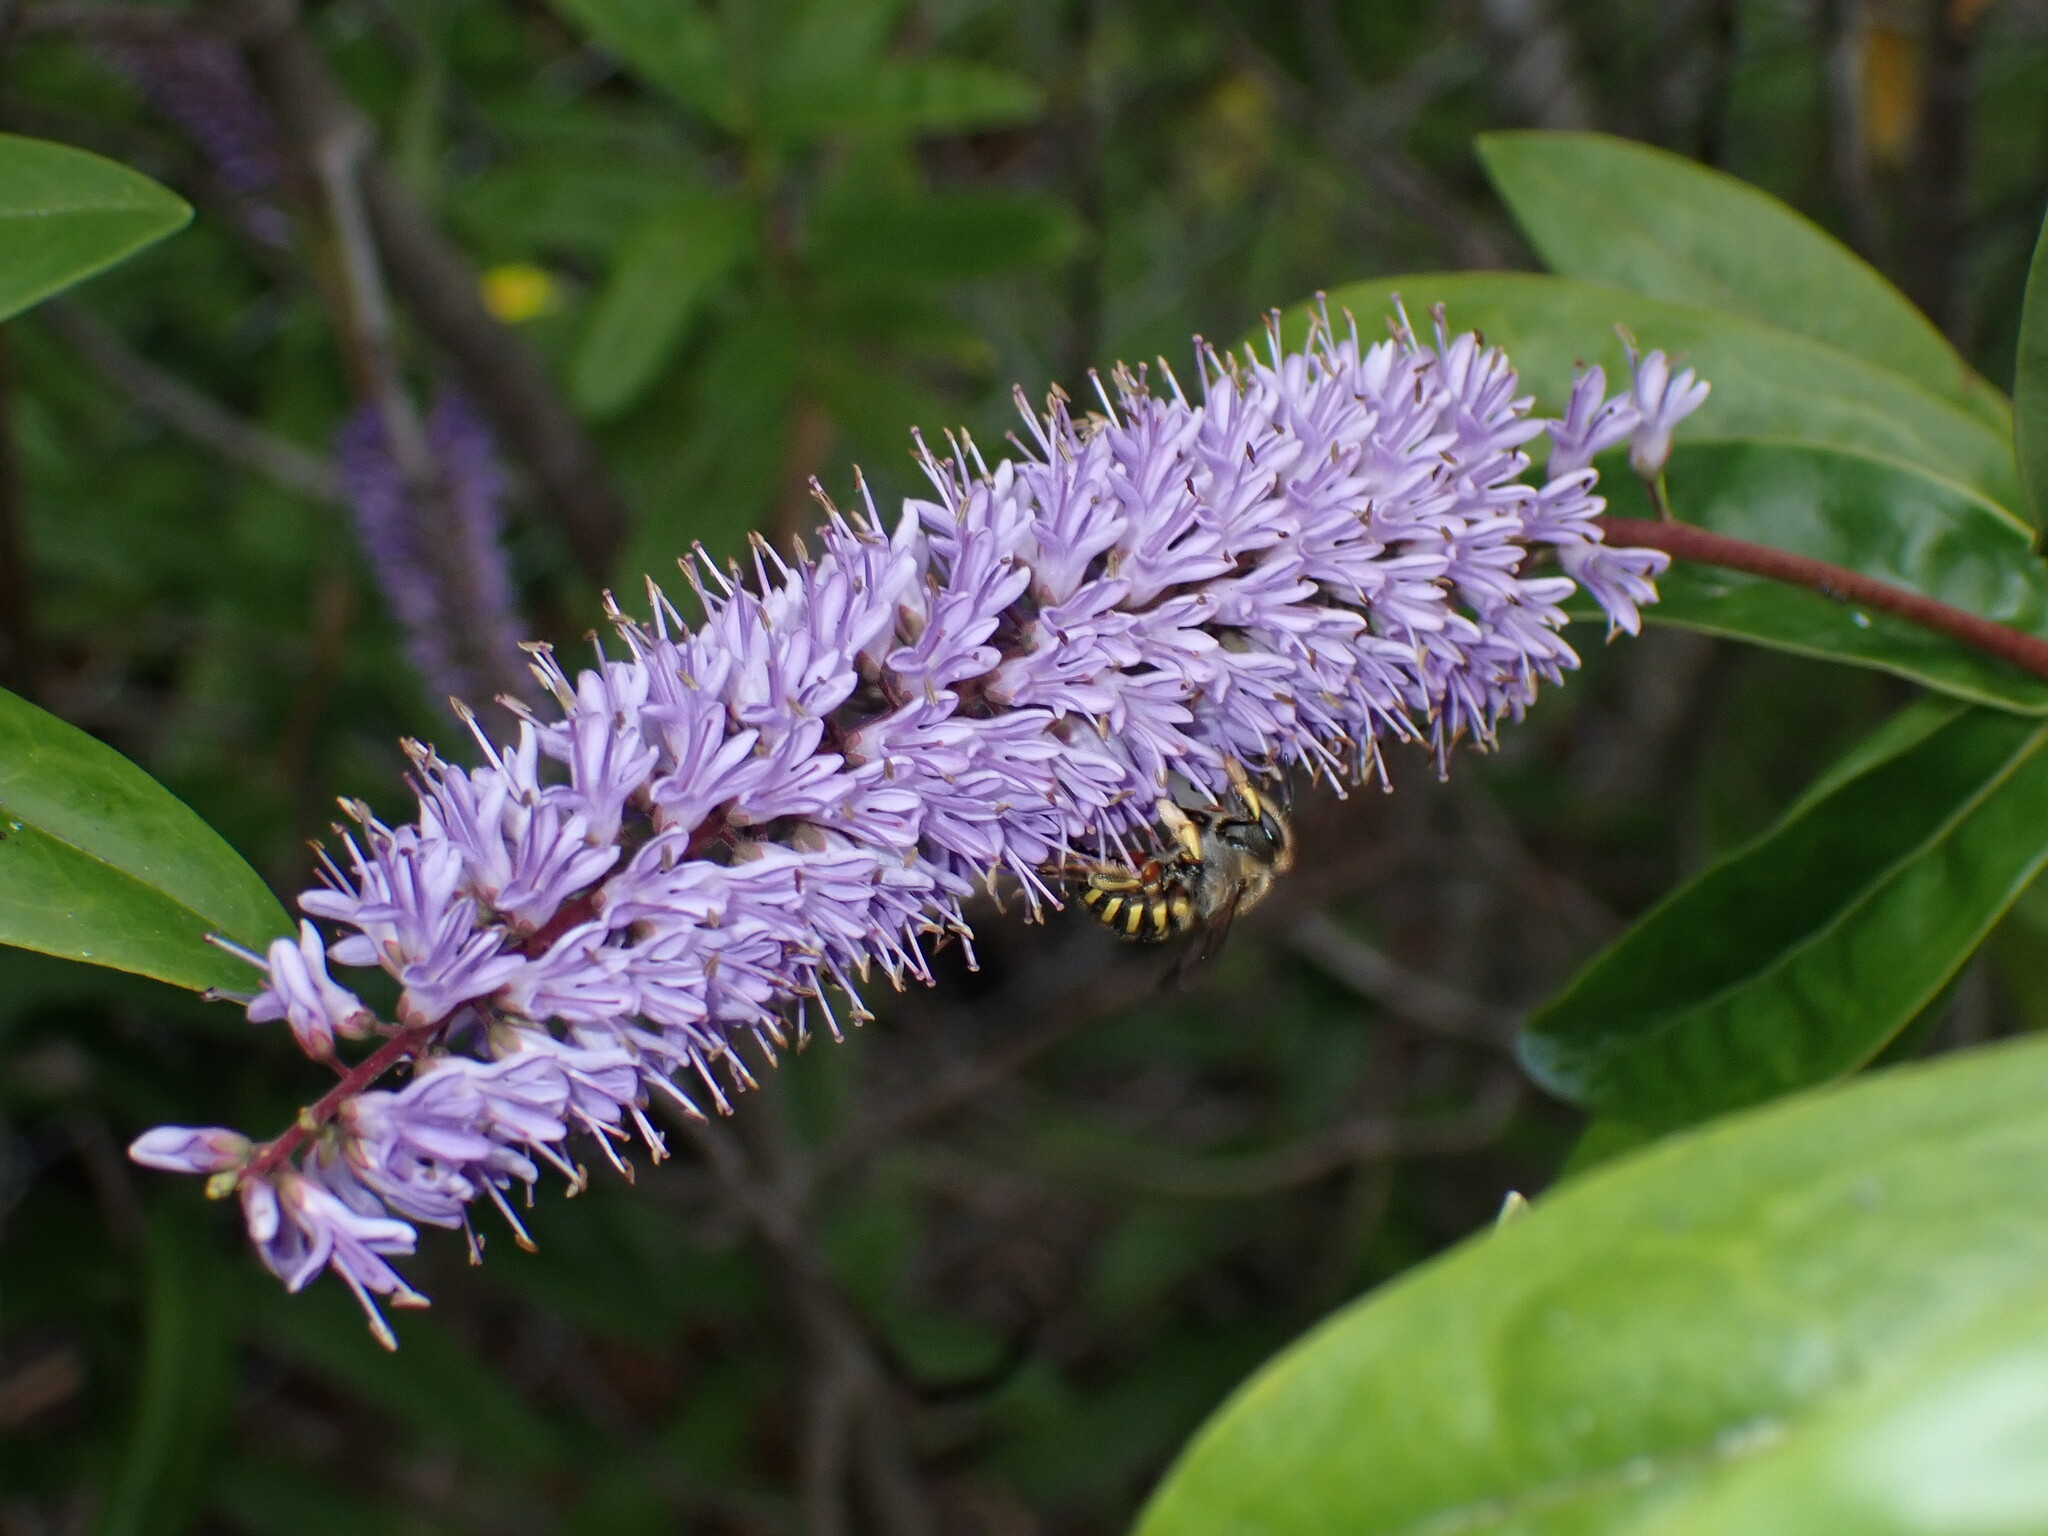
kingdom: Animalia
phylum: Arthropoda
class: Insecta
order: Hymenoptera
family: Megachilidae
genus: Anthidium
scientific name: Anthidium manicatum
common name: Wool carder bee
